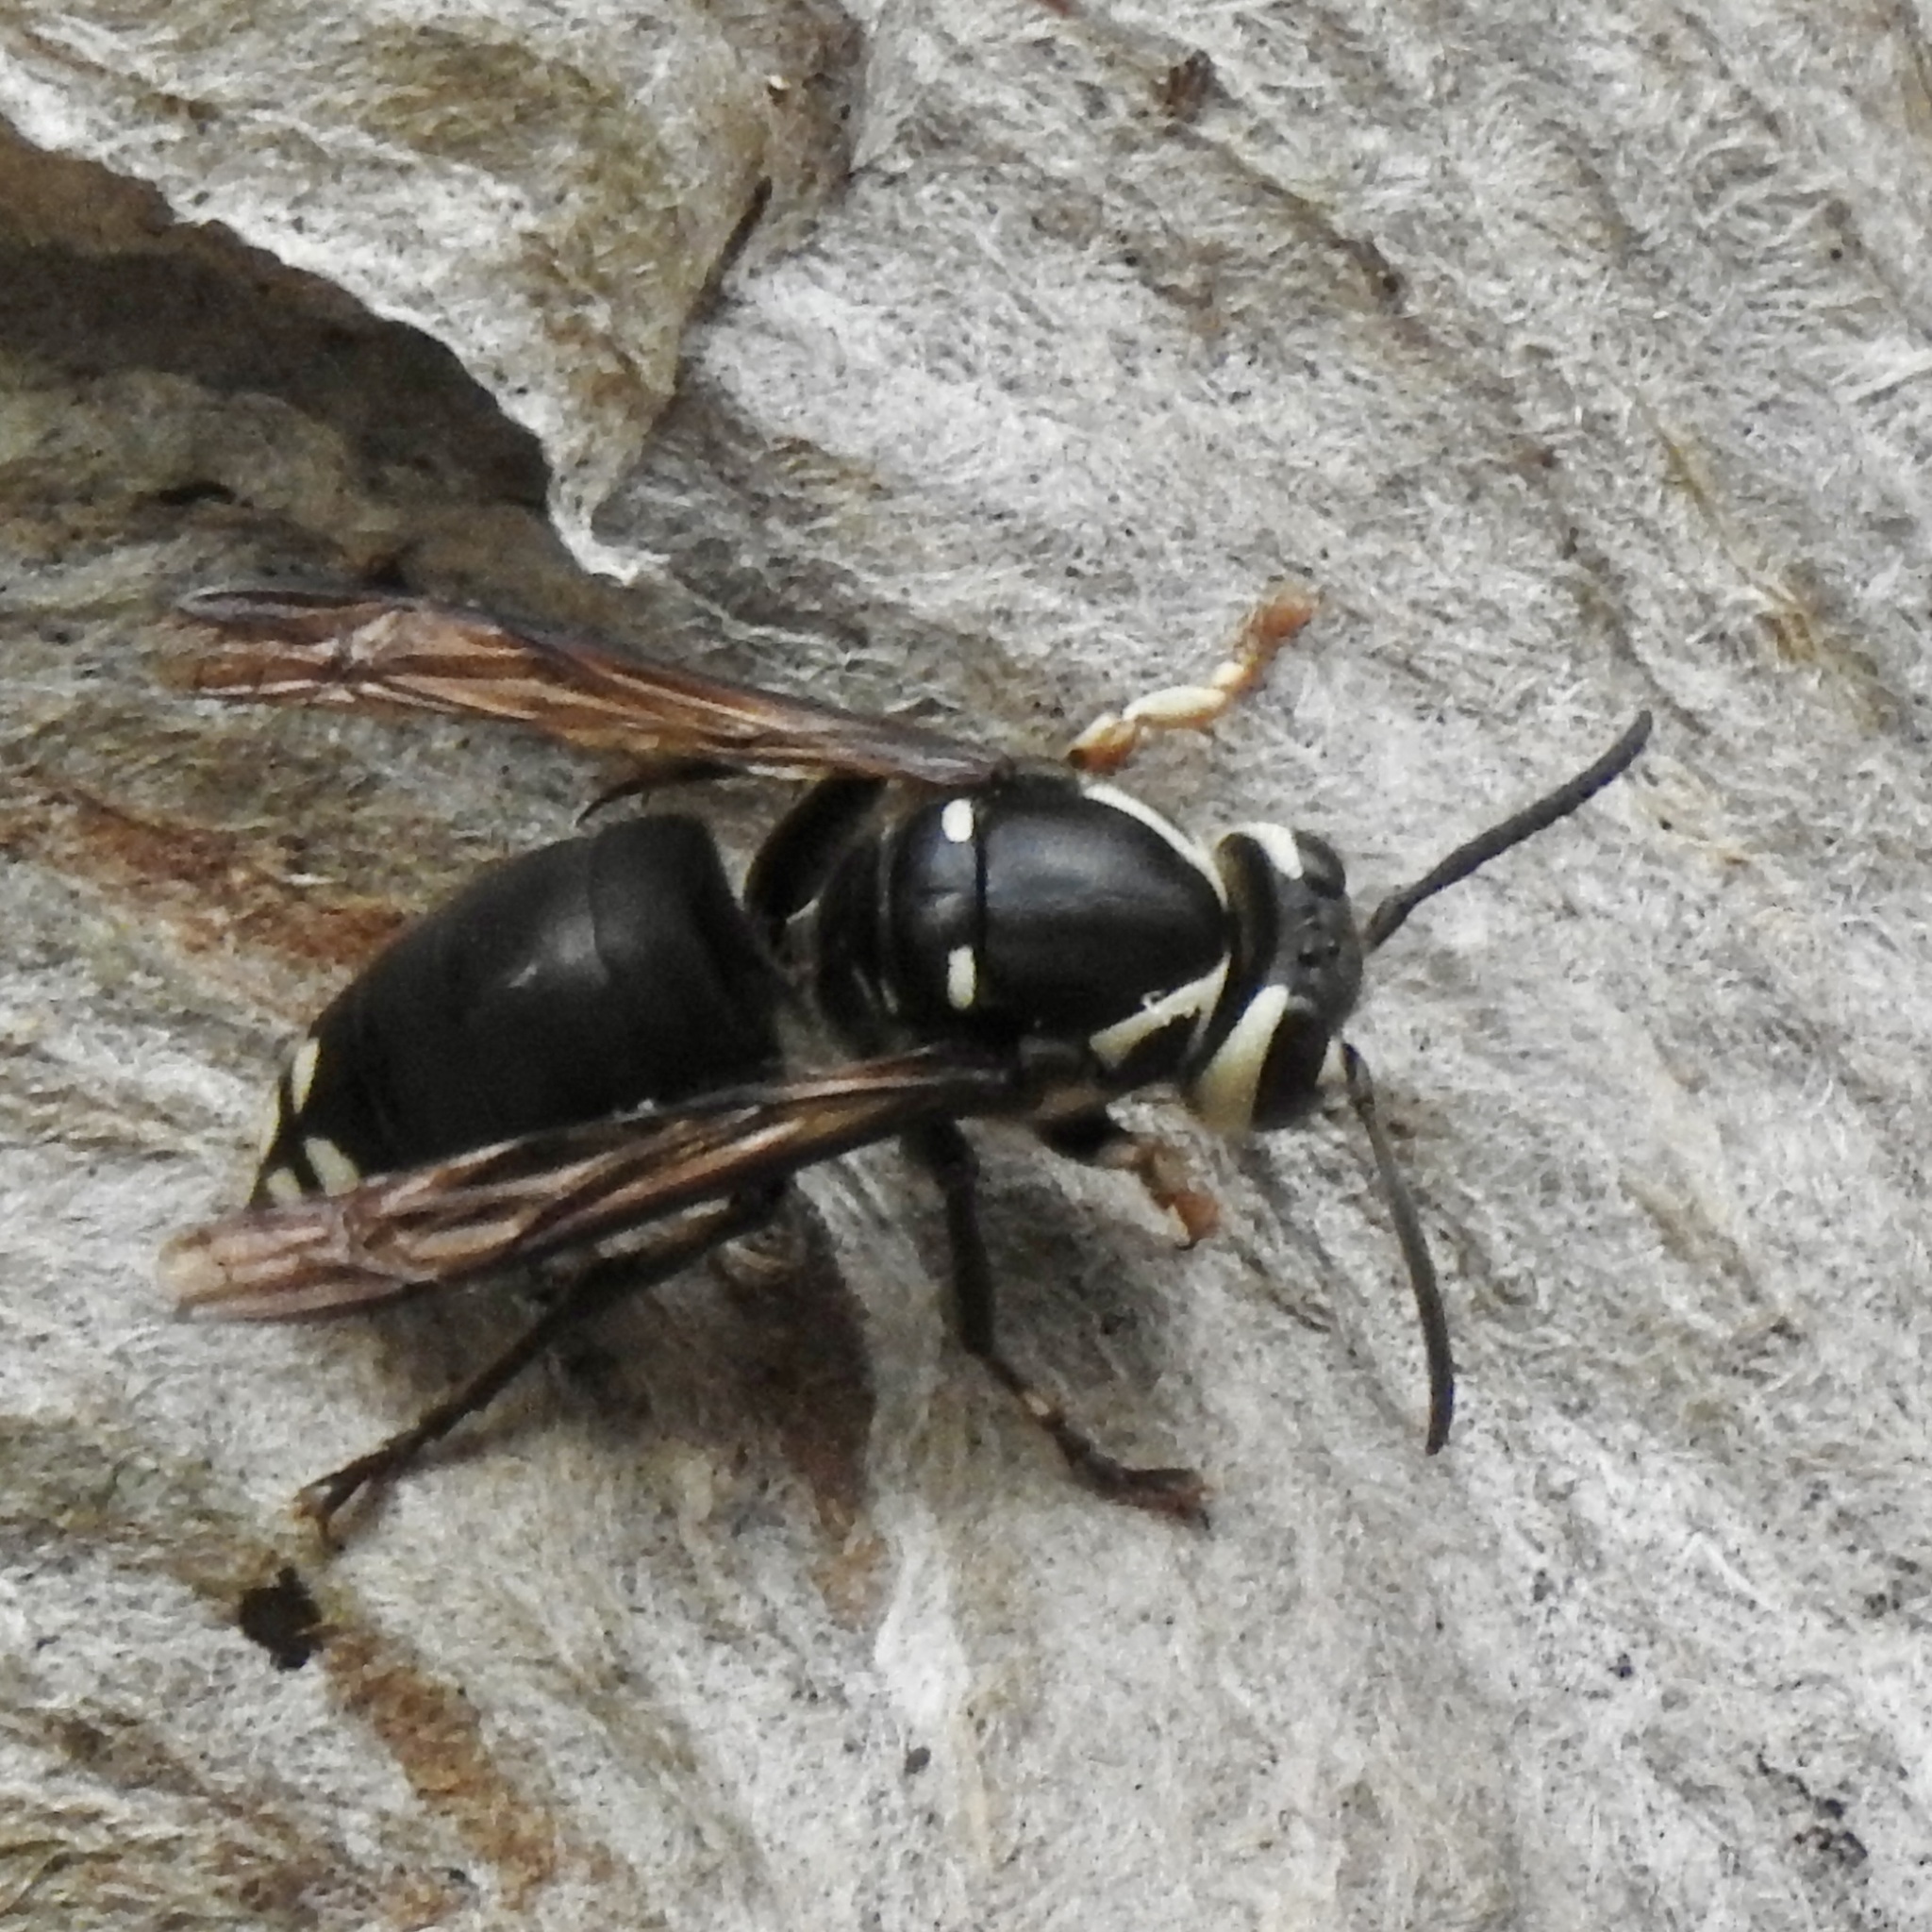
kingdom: Animalia
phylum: Arthropoda
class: Insecta
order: Hymenoptera
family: Vespidae
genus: Dolichovespula
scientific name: Dolichovespula maculata
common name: Bald-faced hornet
